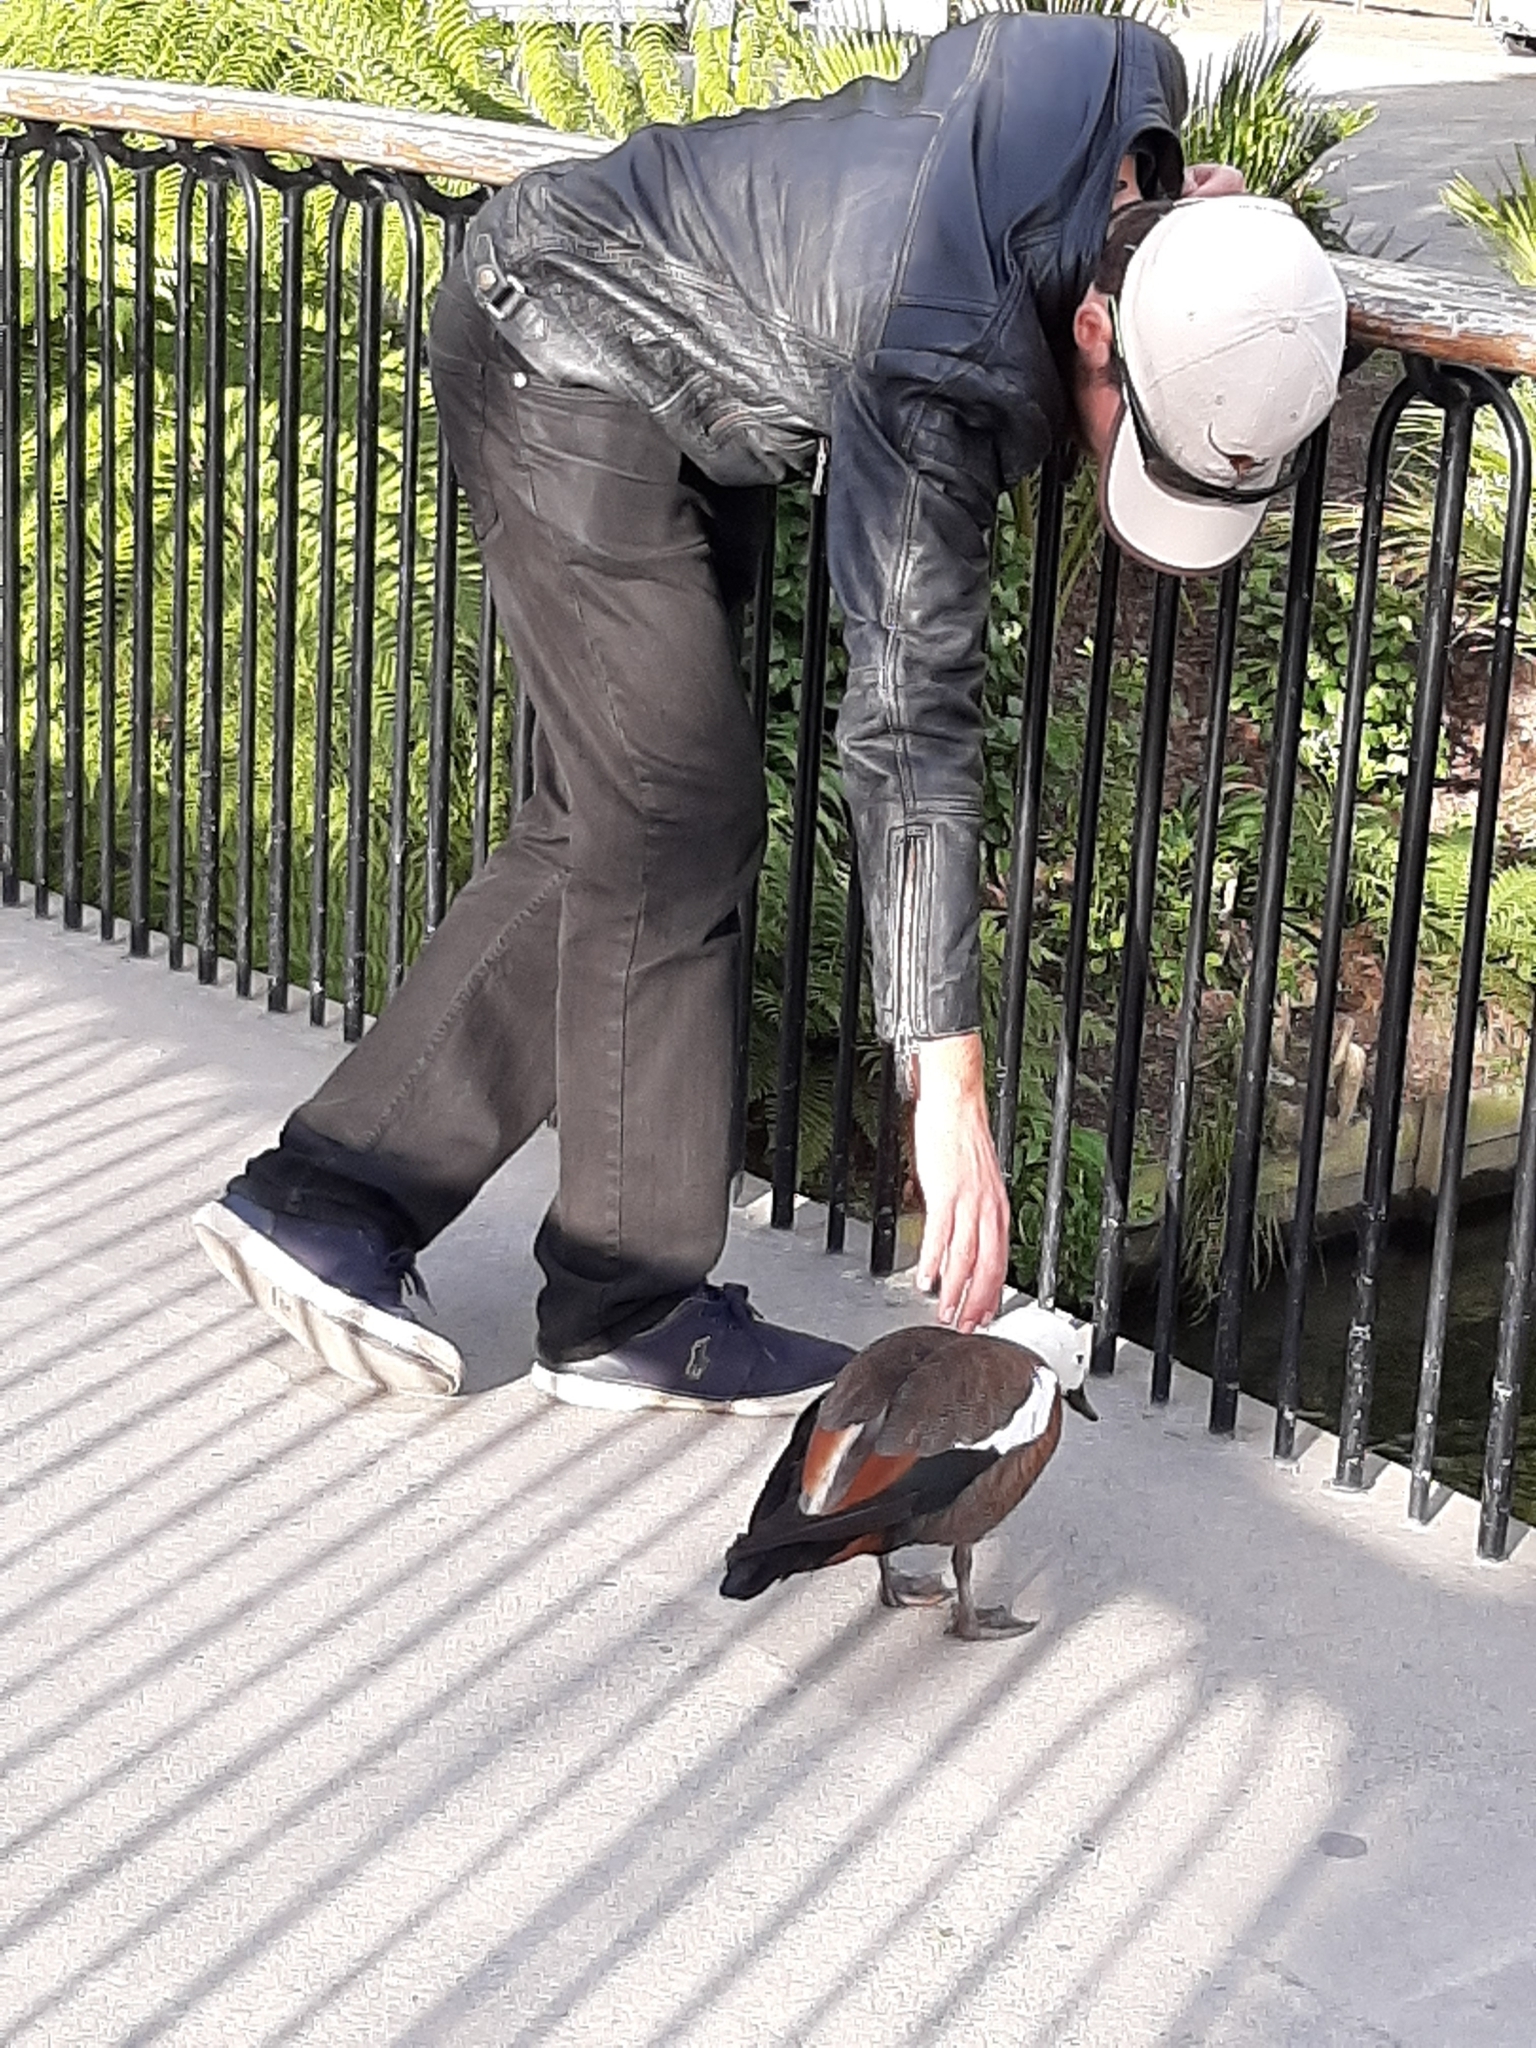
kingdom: Animalia
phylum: Chordata
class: Aves
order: Anseriformes
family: Anatidae
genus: Tadorna
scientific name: Tadorna variegata
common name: Paradise shelduck
